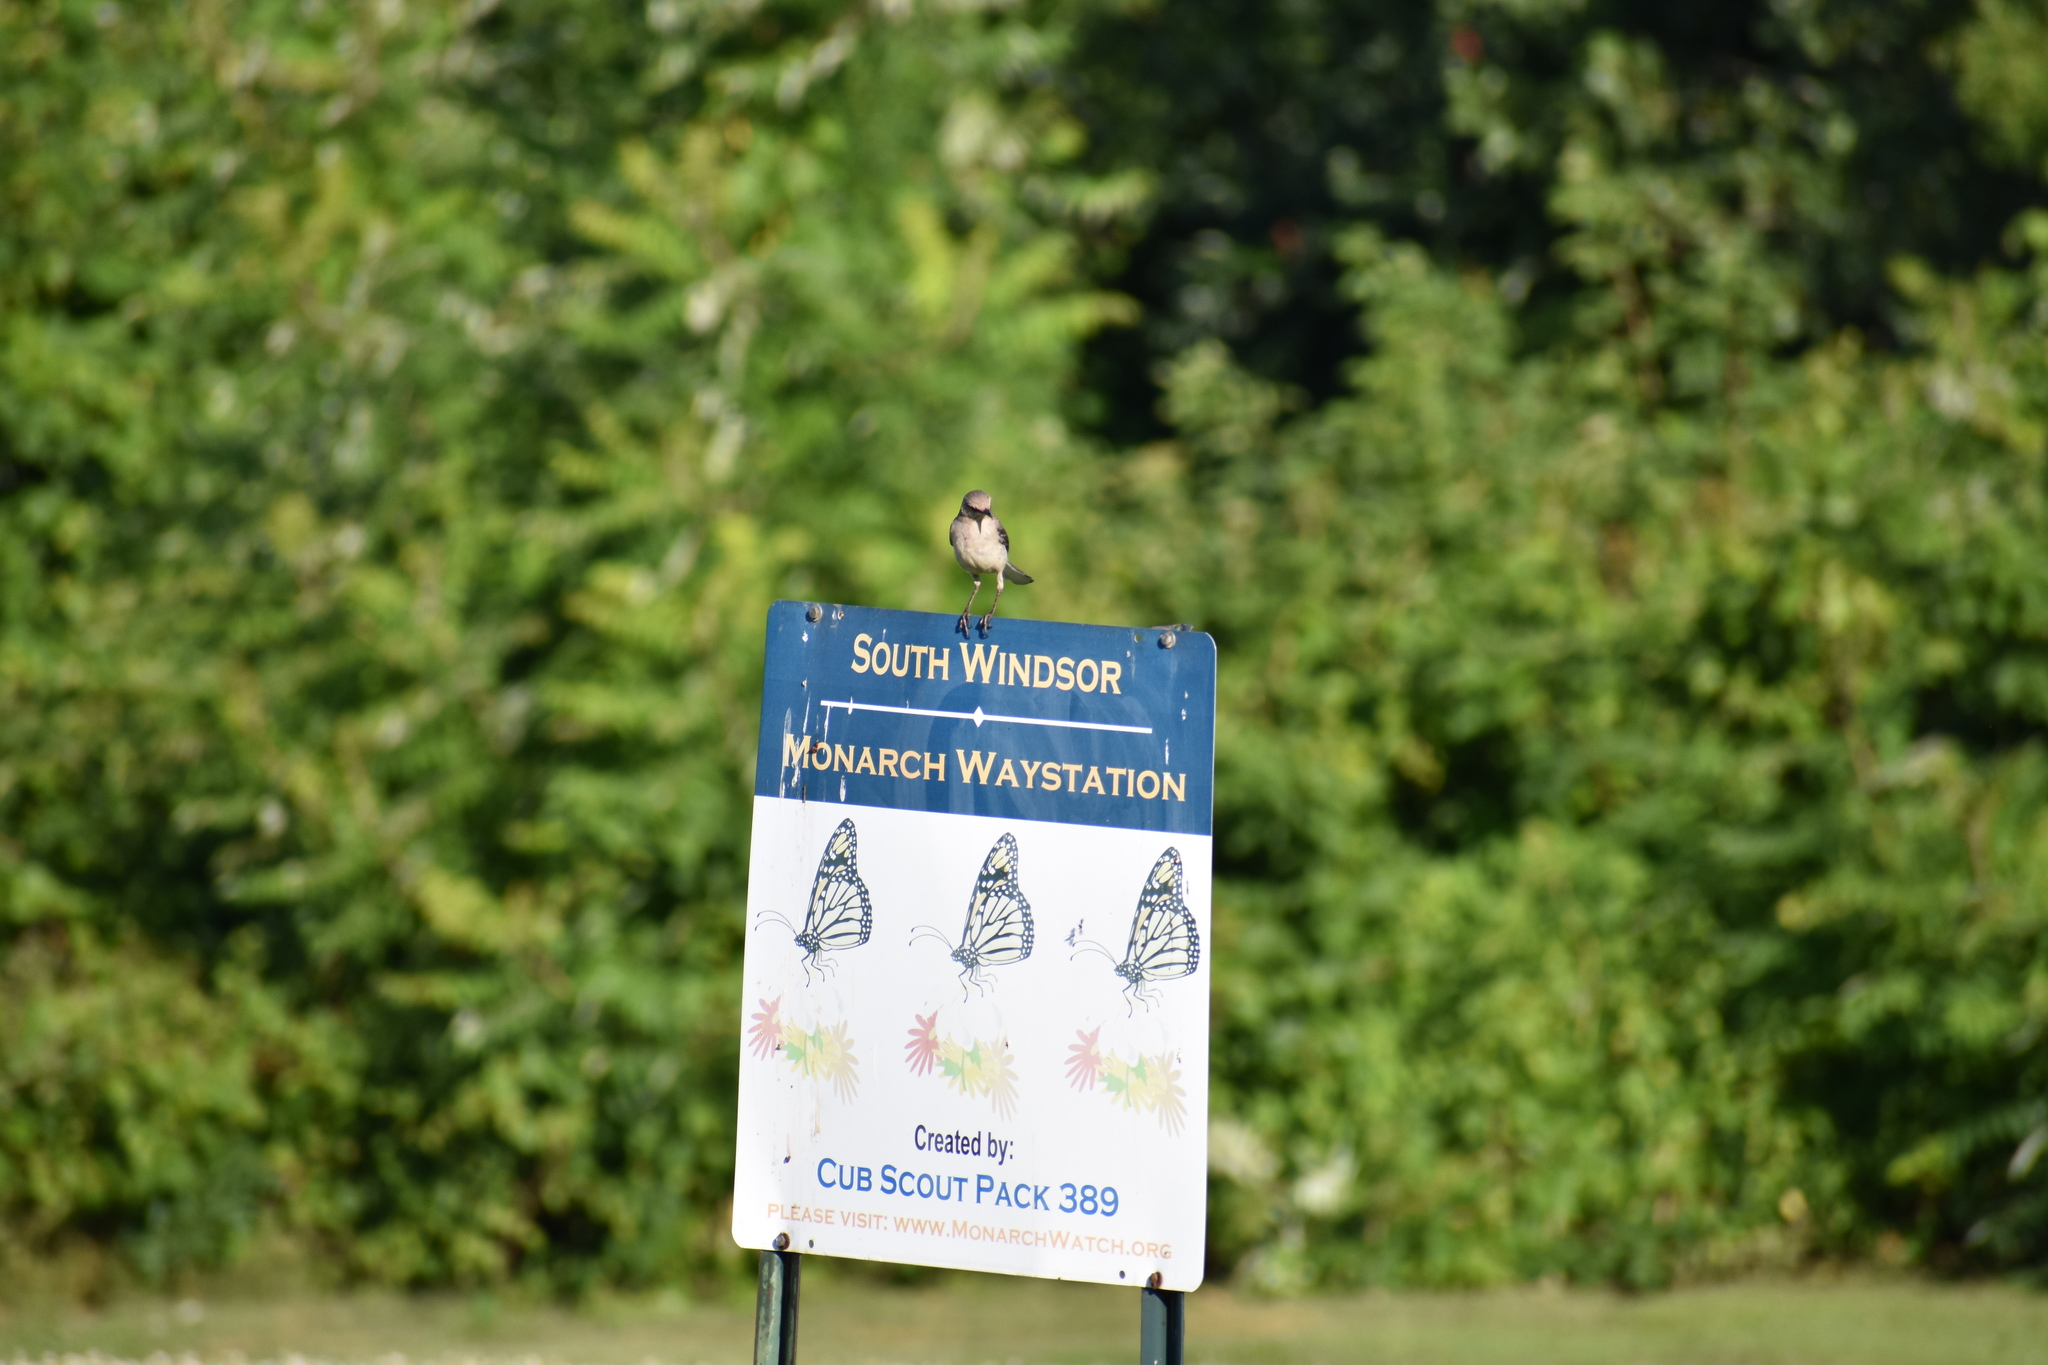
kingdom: Animalia
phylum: Chordata
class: Aves
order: Passeriformes
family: Mimidae
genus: Mimus
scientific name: Mimus polyglottos
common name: Northern mockingbird
